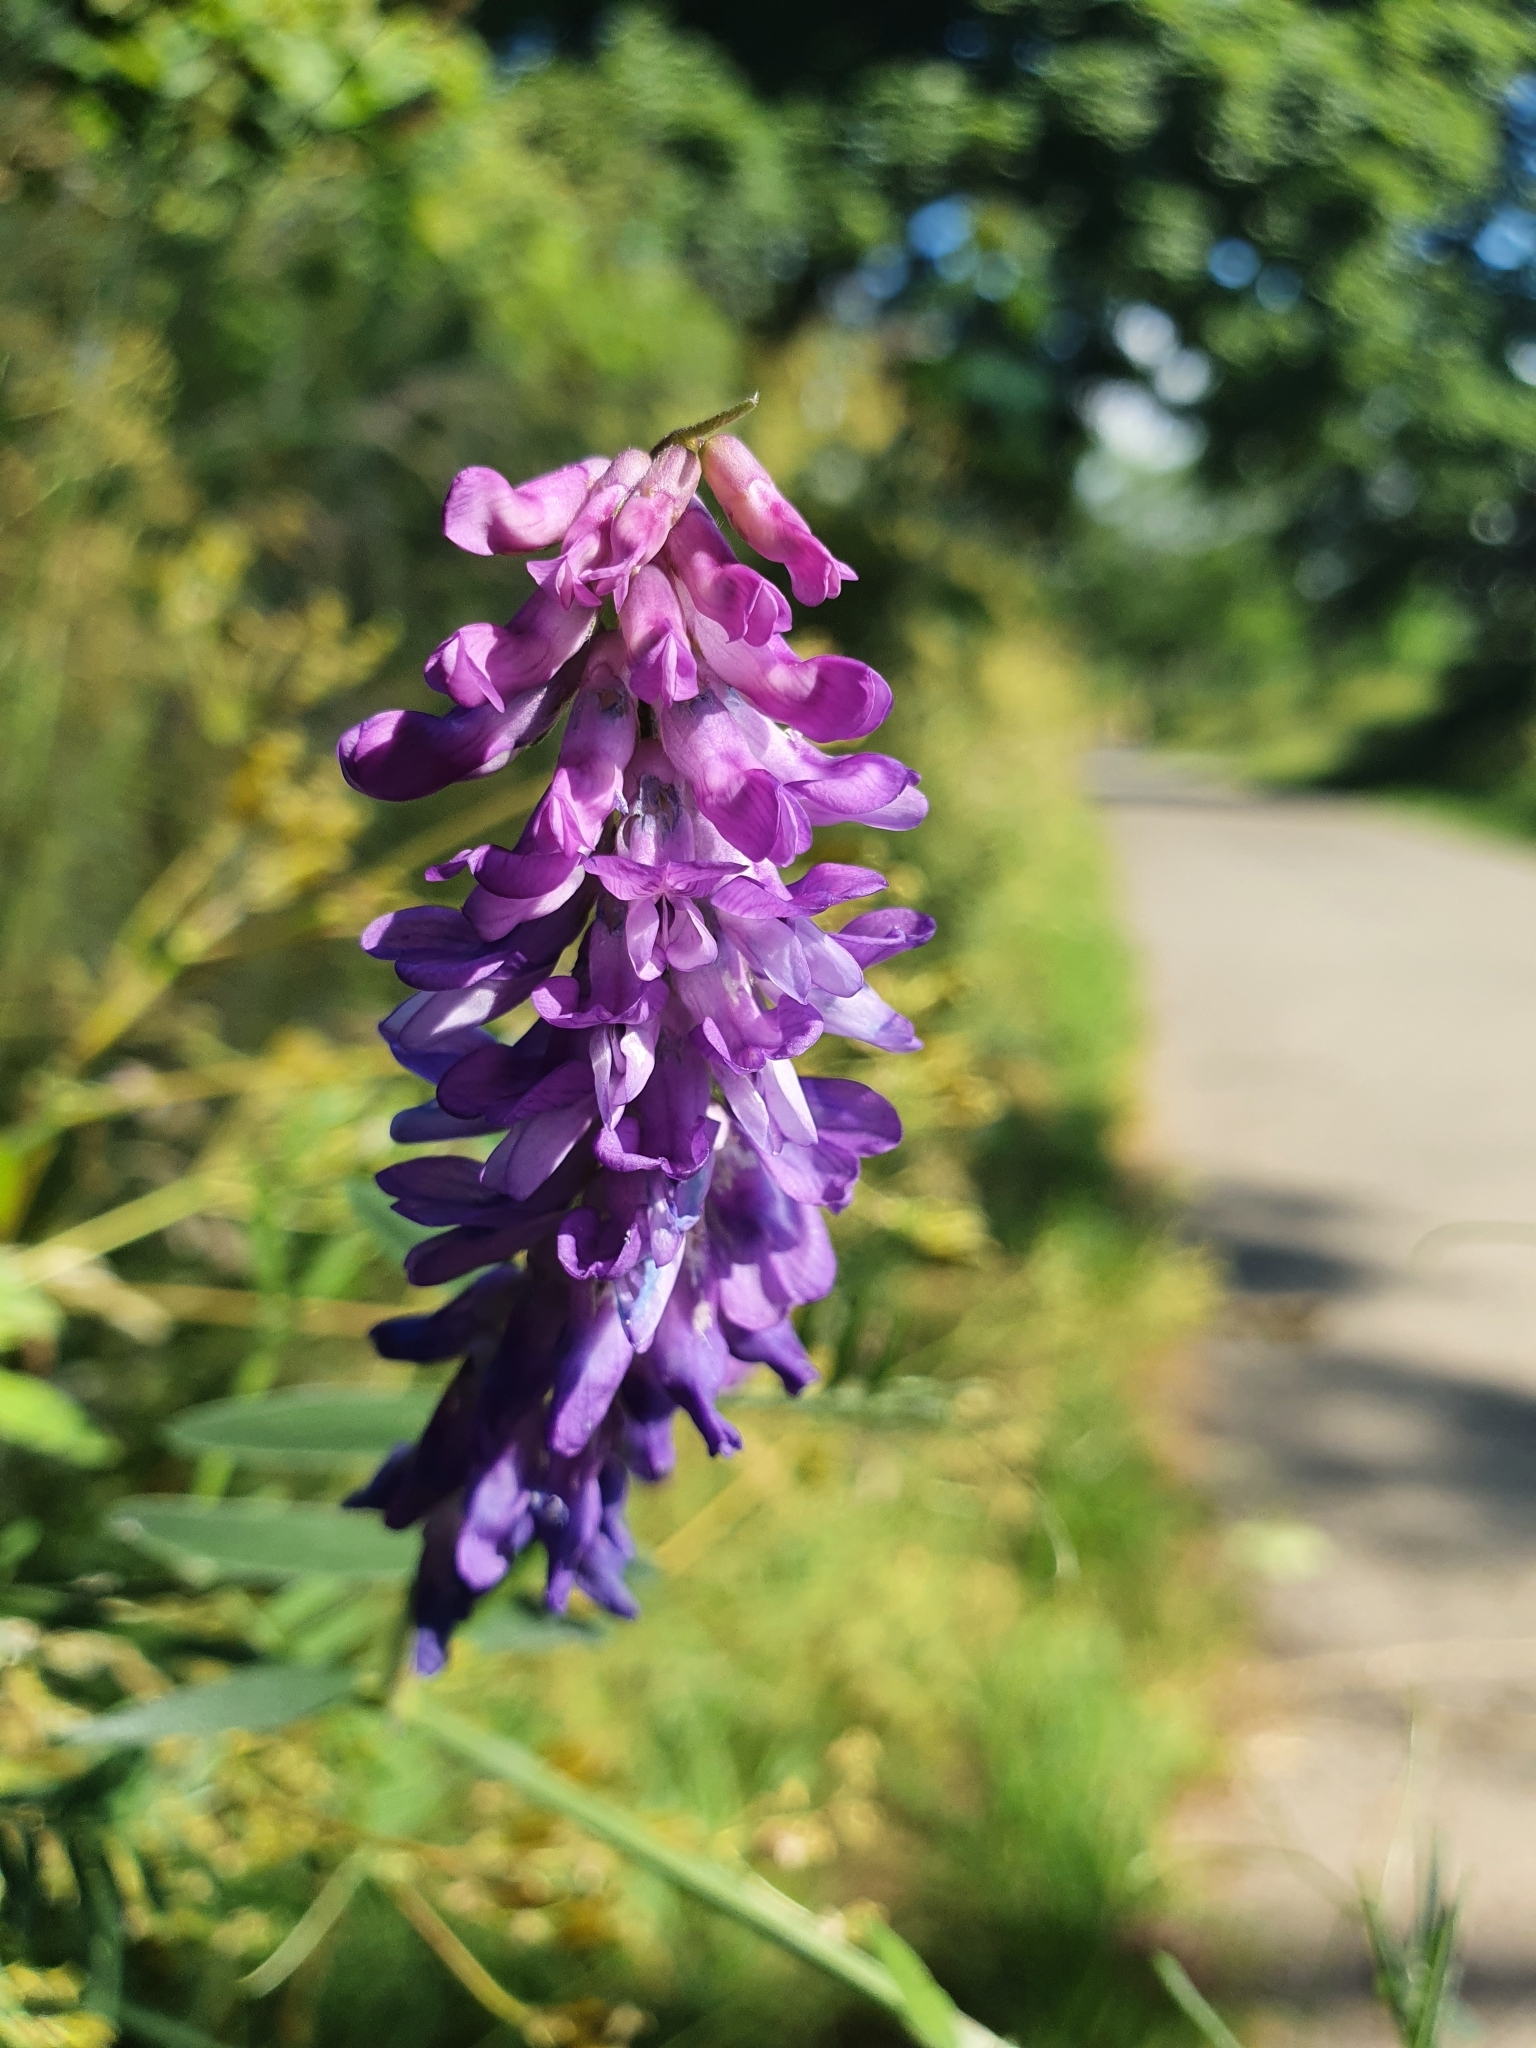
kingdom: Plantae
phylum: Tracheophyta
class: Magnoliopsida
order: Fabales
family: Fabaceae
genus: Vicia
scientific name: Vicia cracca
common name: Bird vetch
